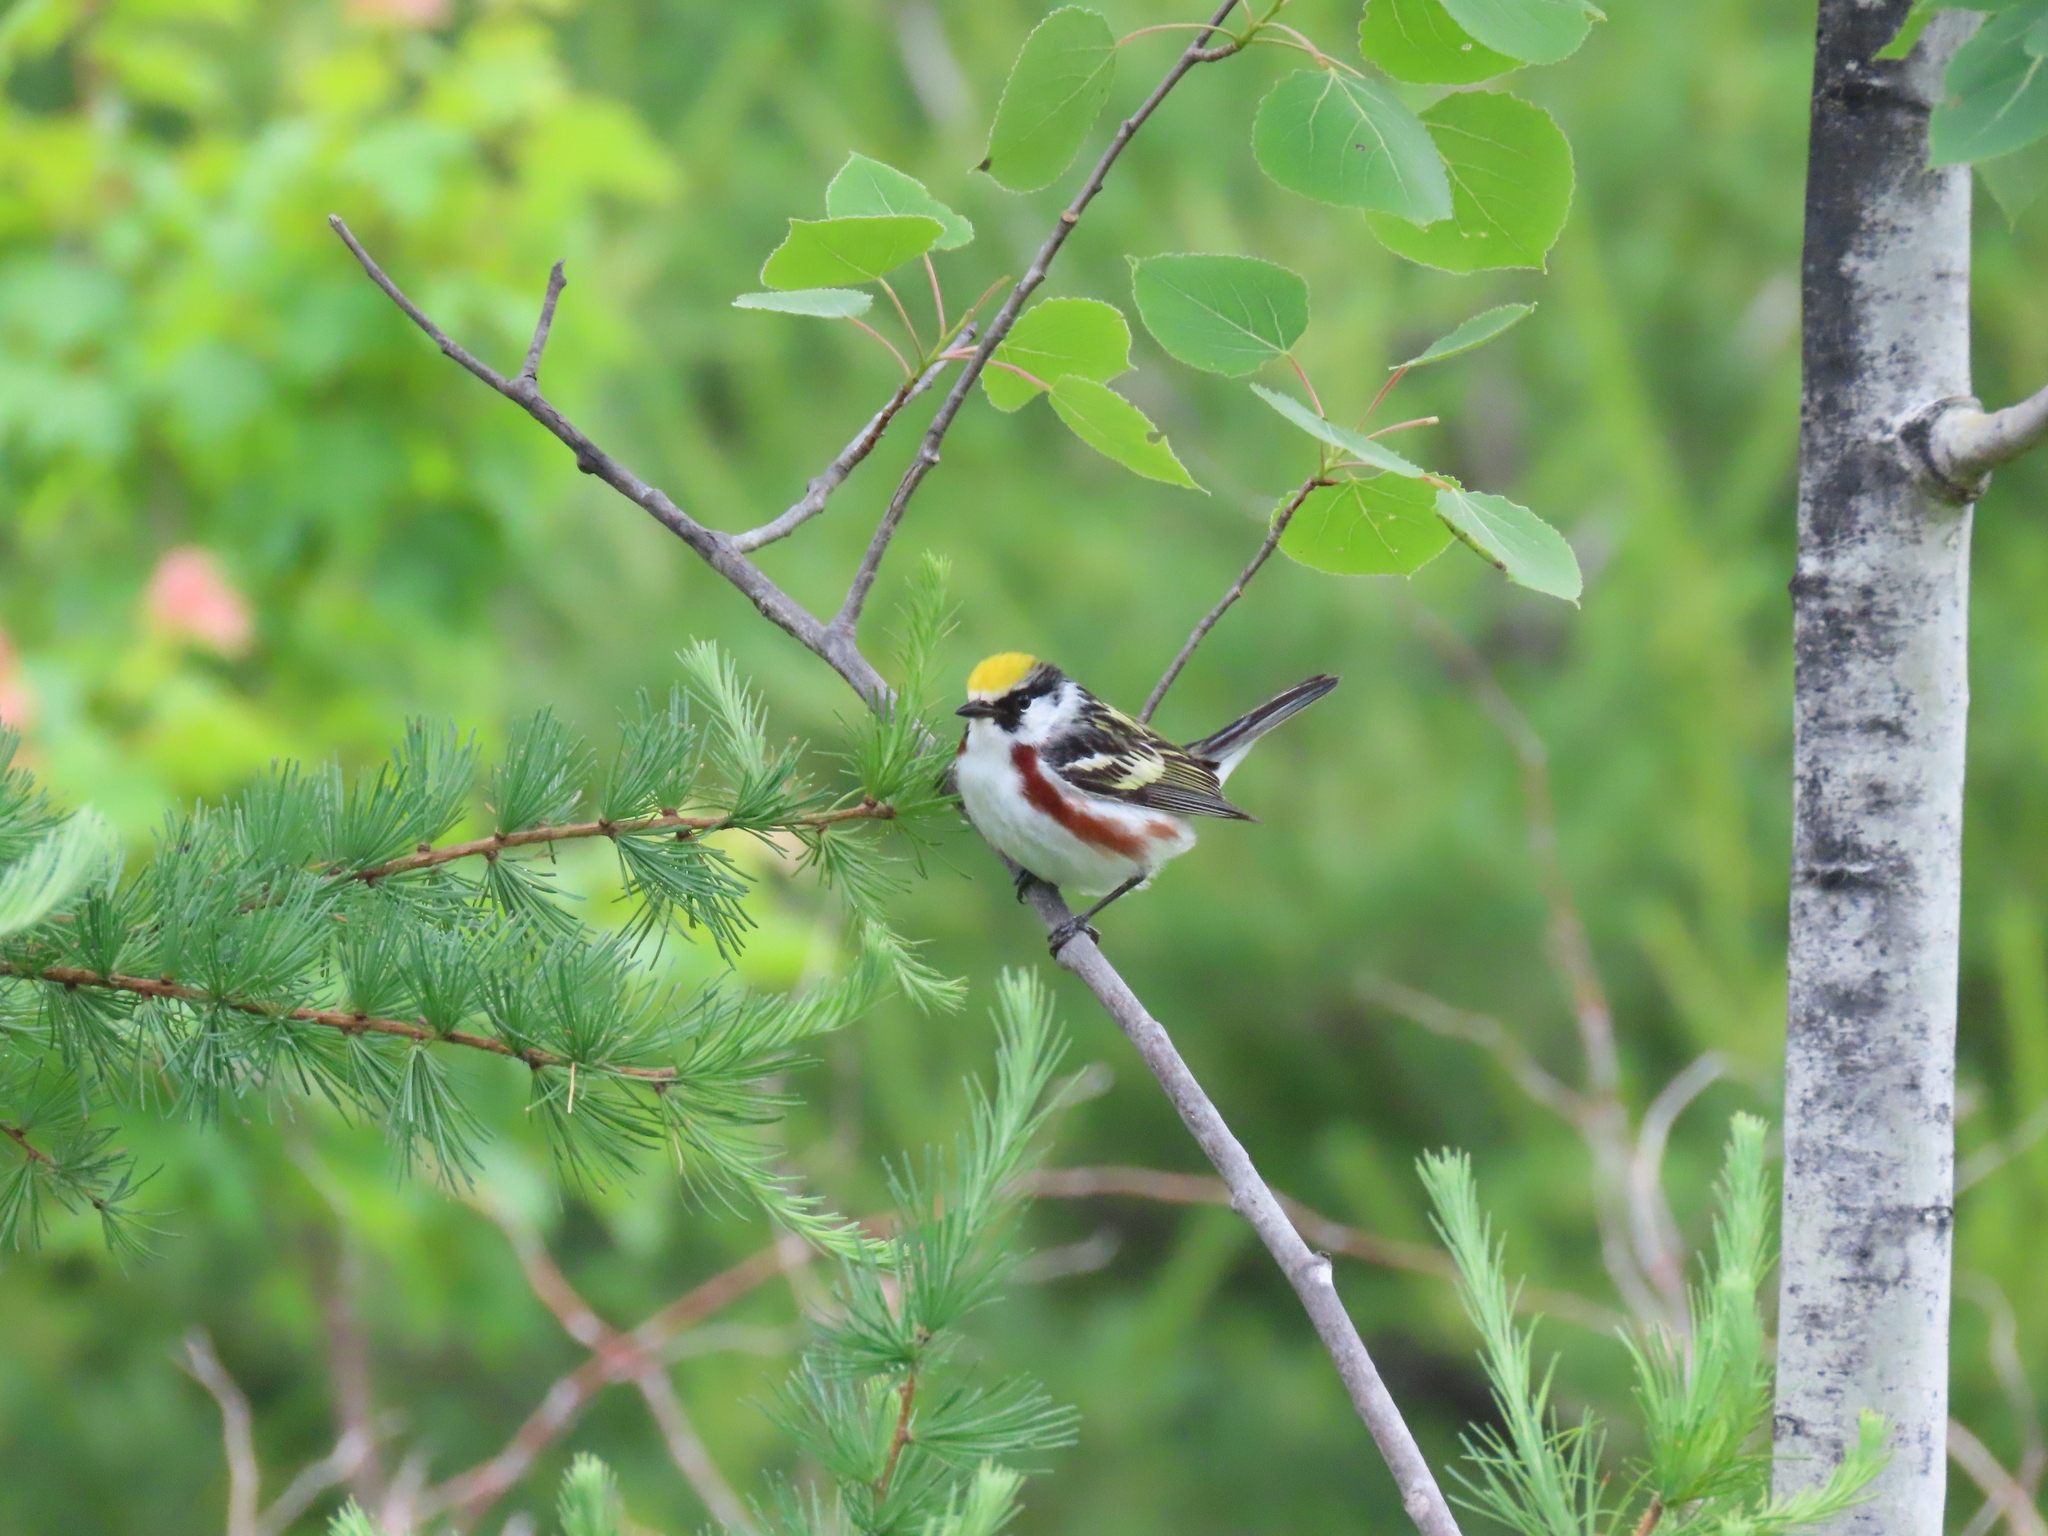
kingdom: Animalia
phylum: Chordata
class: Aves
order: Passeriformes
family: Parulidae
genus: Setophaga
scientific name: Setophaga pensylvanica
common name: Chestnut-sided warbler
